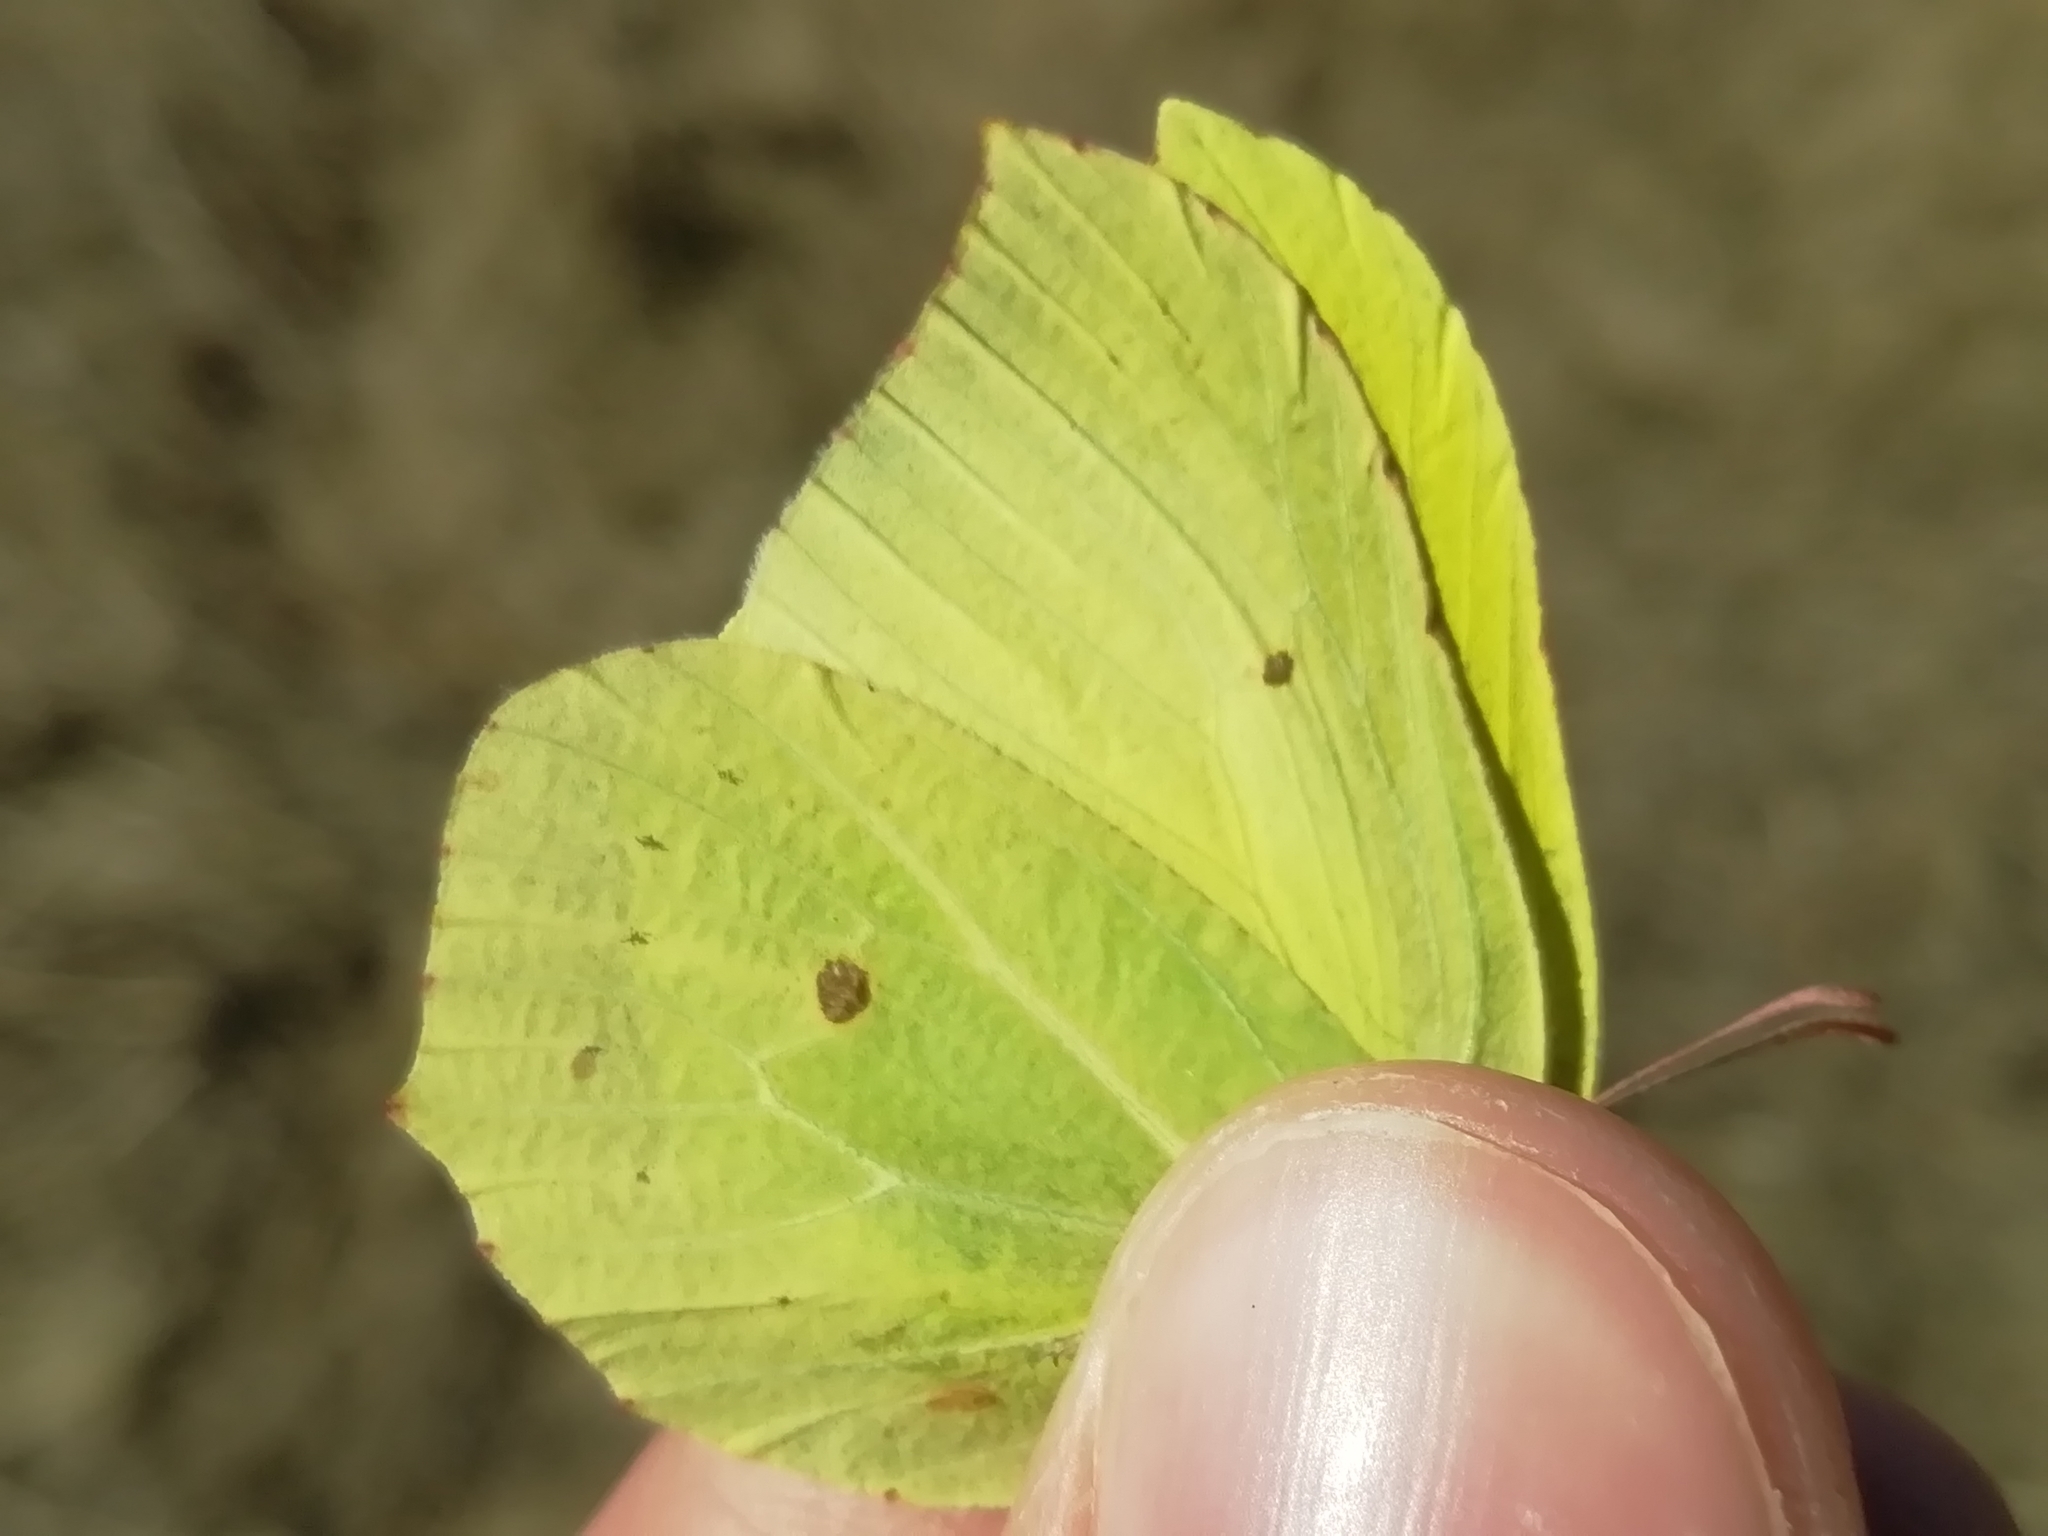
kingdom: Animalia
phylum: Arthropoda
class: Insecta
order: Lepidoptera
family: Pieridae
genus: Gonepteryx
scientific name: Gonepteryx rhamni
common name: Brimstone
